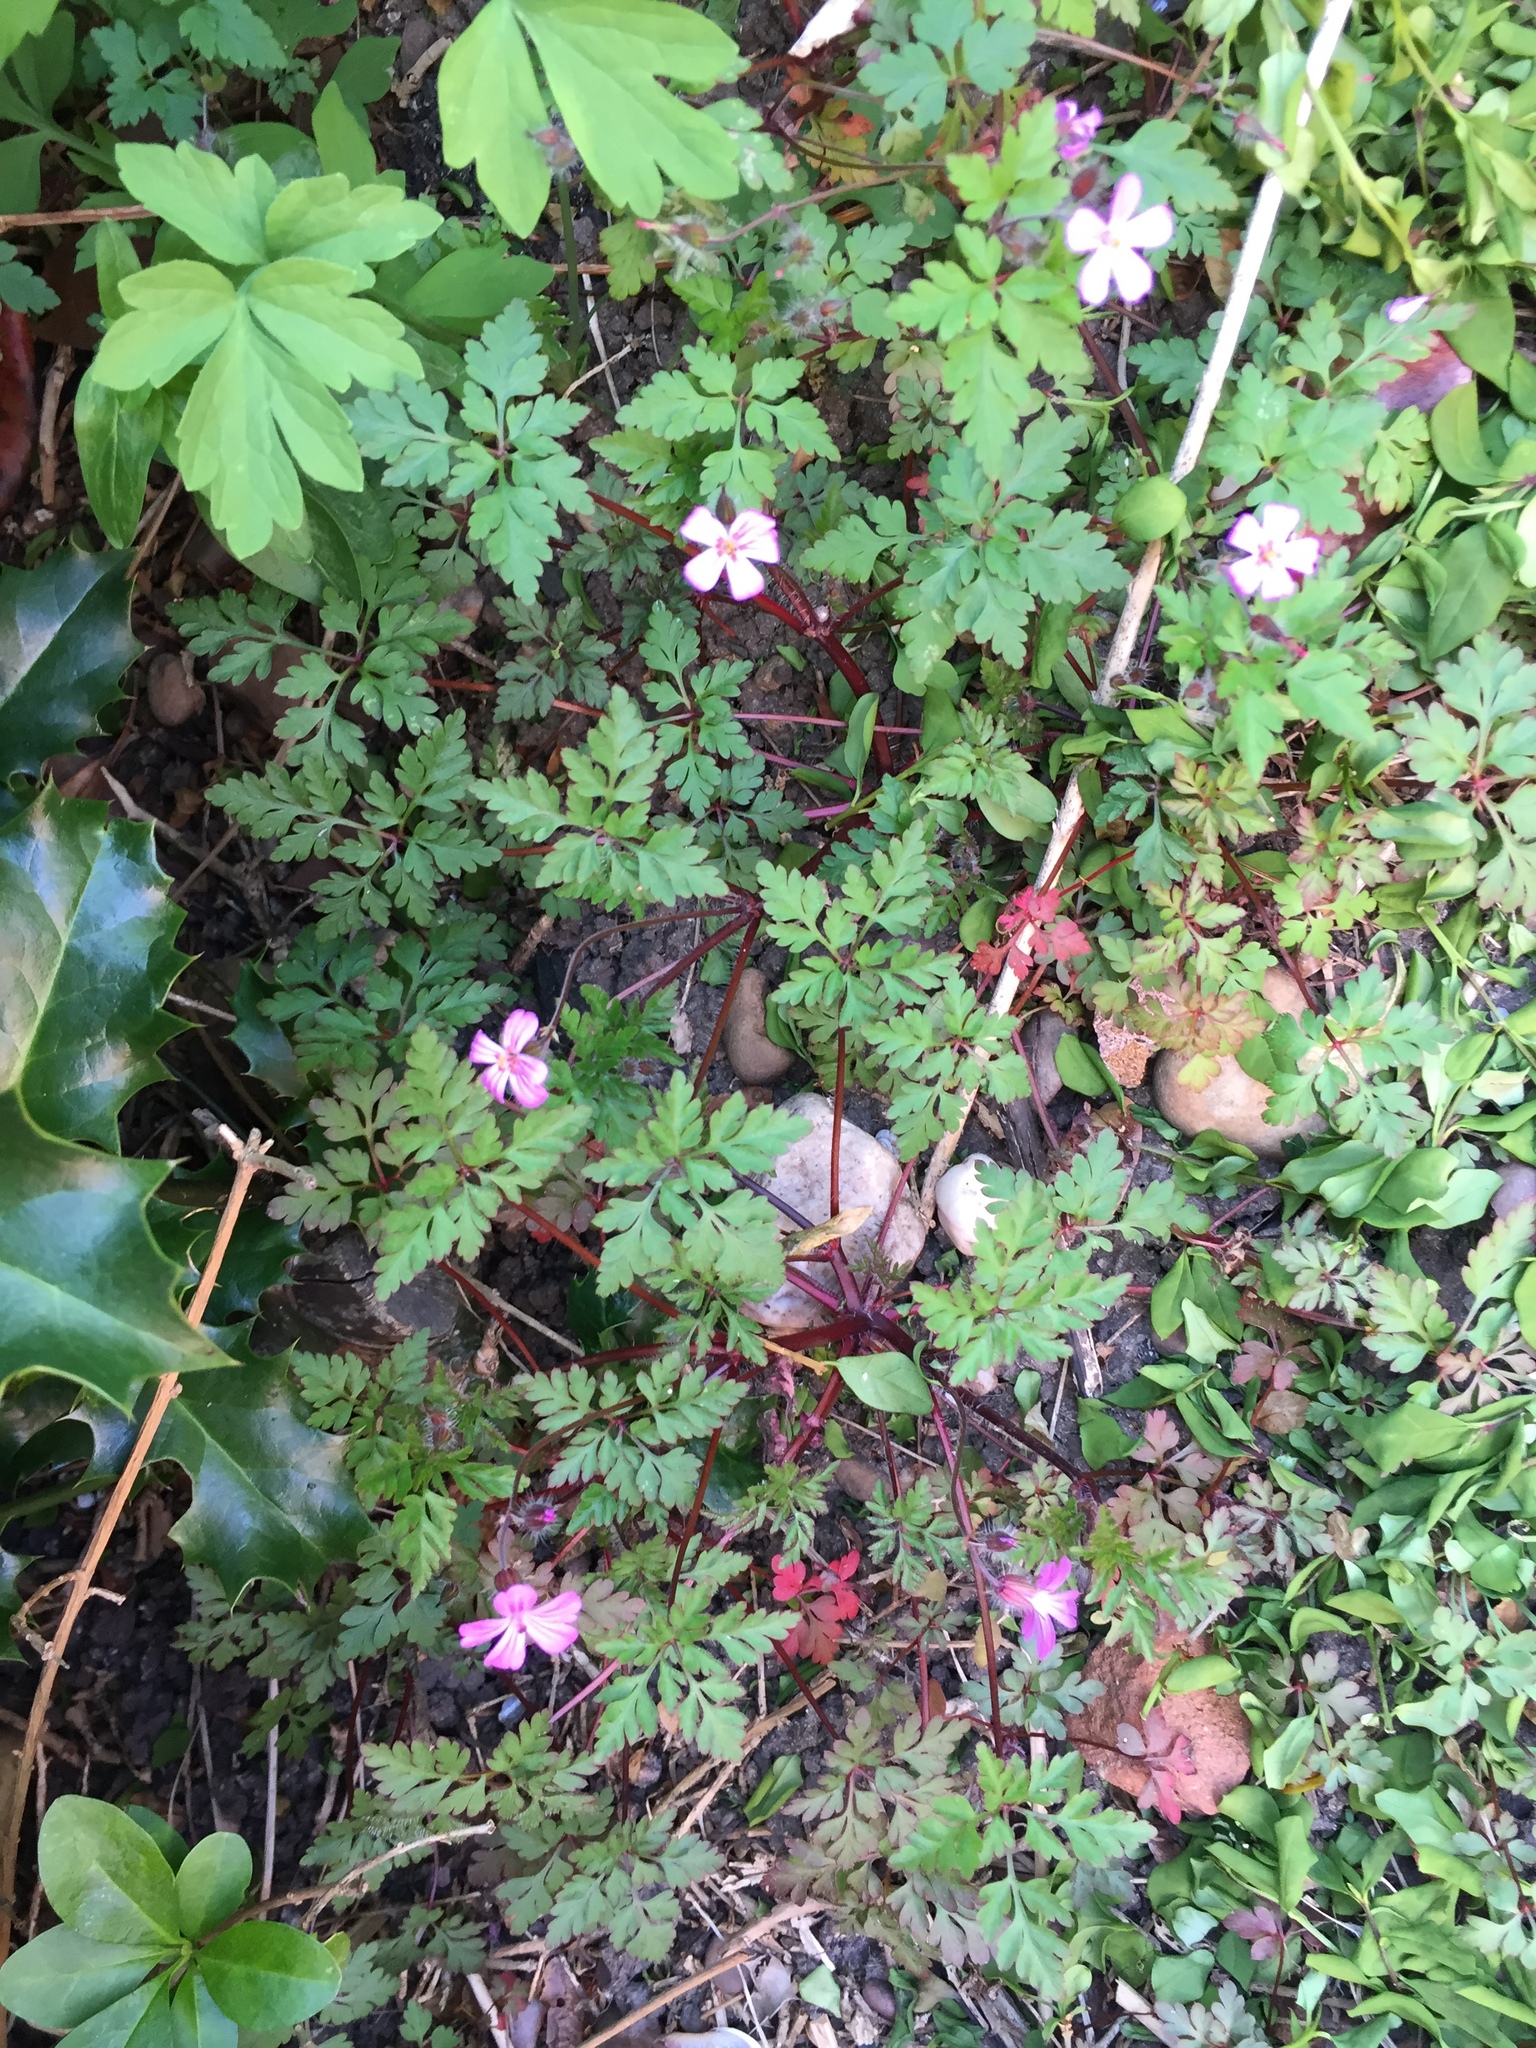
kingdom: Plantae
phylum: Tracheophyta
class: Magnoliopsida
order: Geraniales
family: Geraniaceae
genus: Geranium
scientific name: Geranium robertianum
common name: Herb-robert
